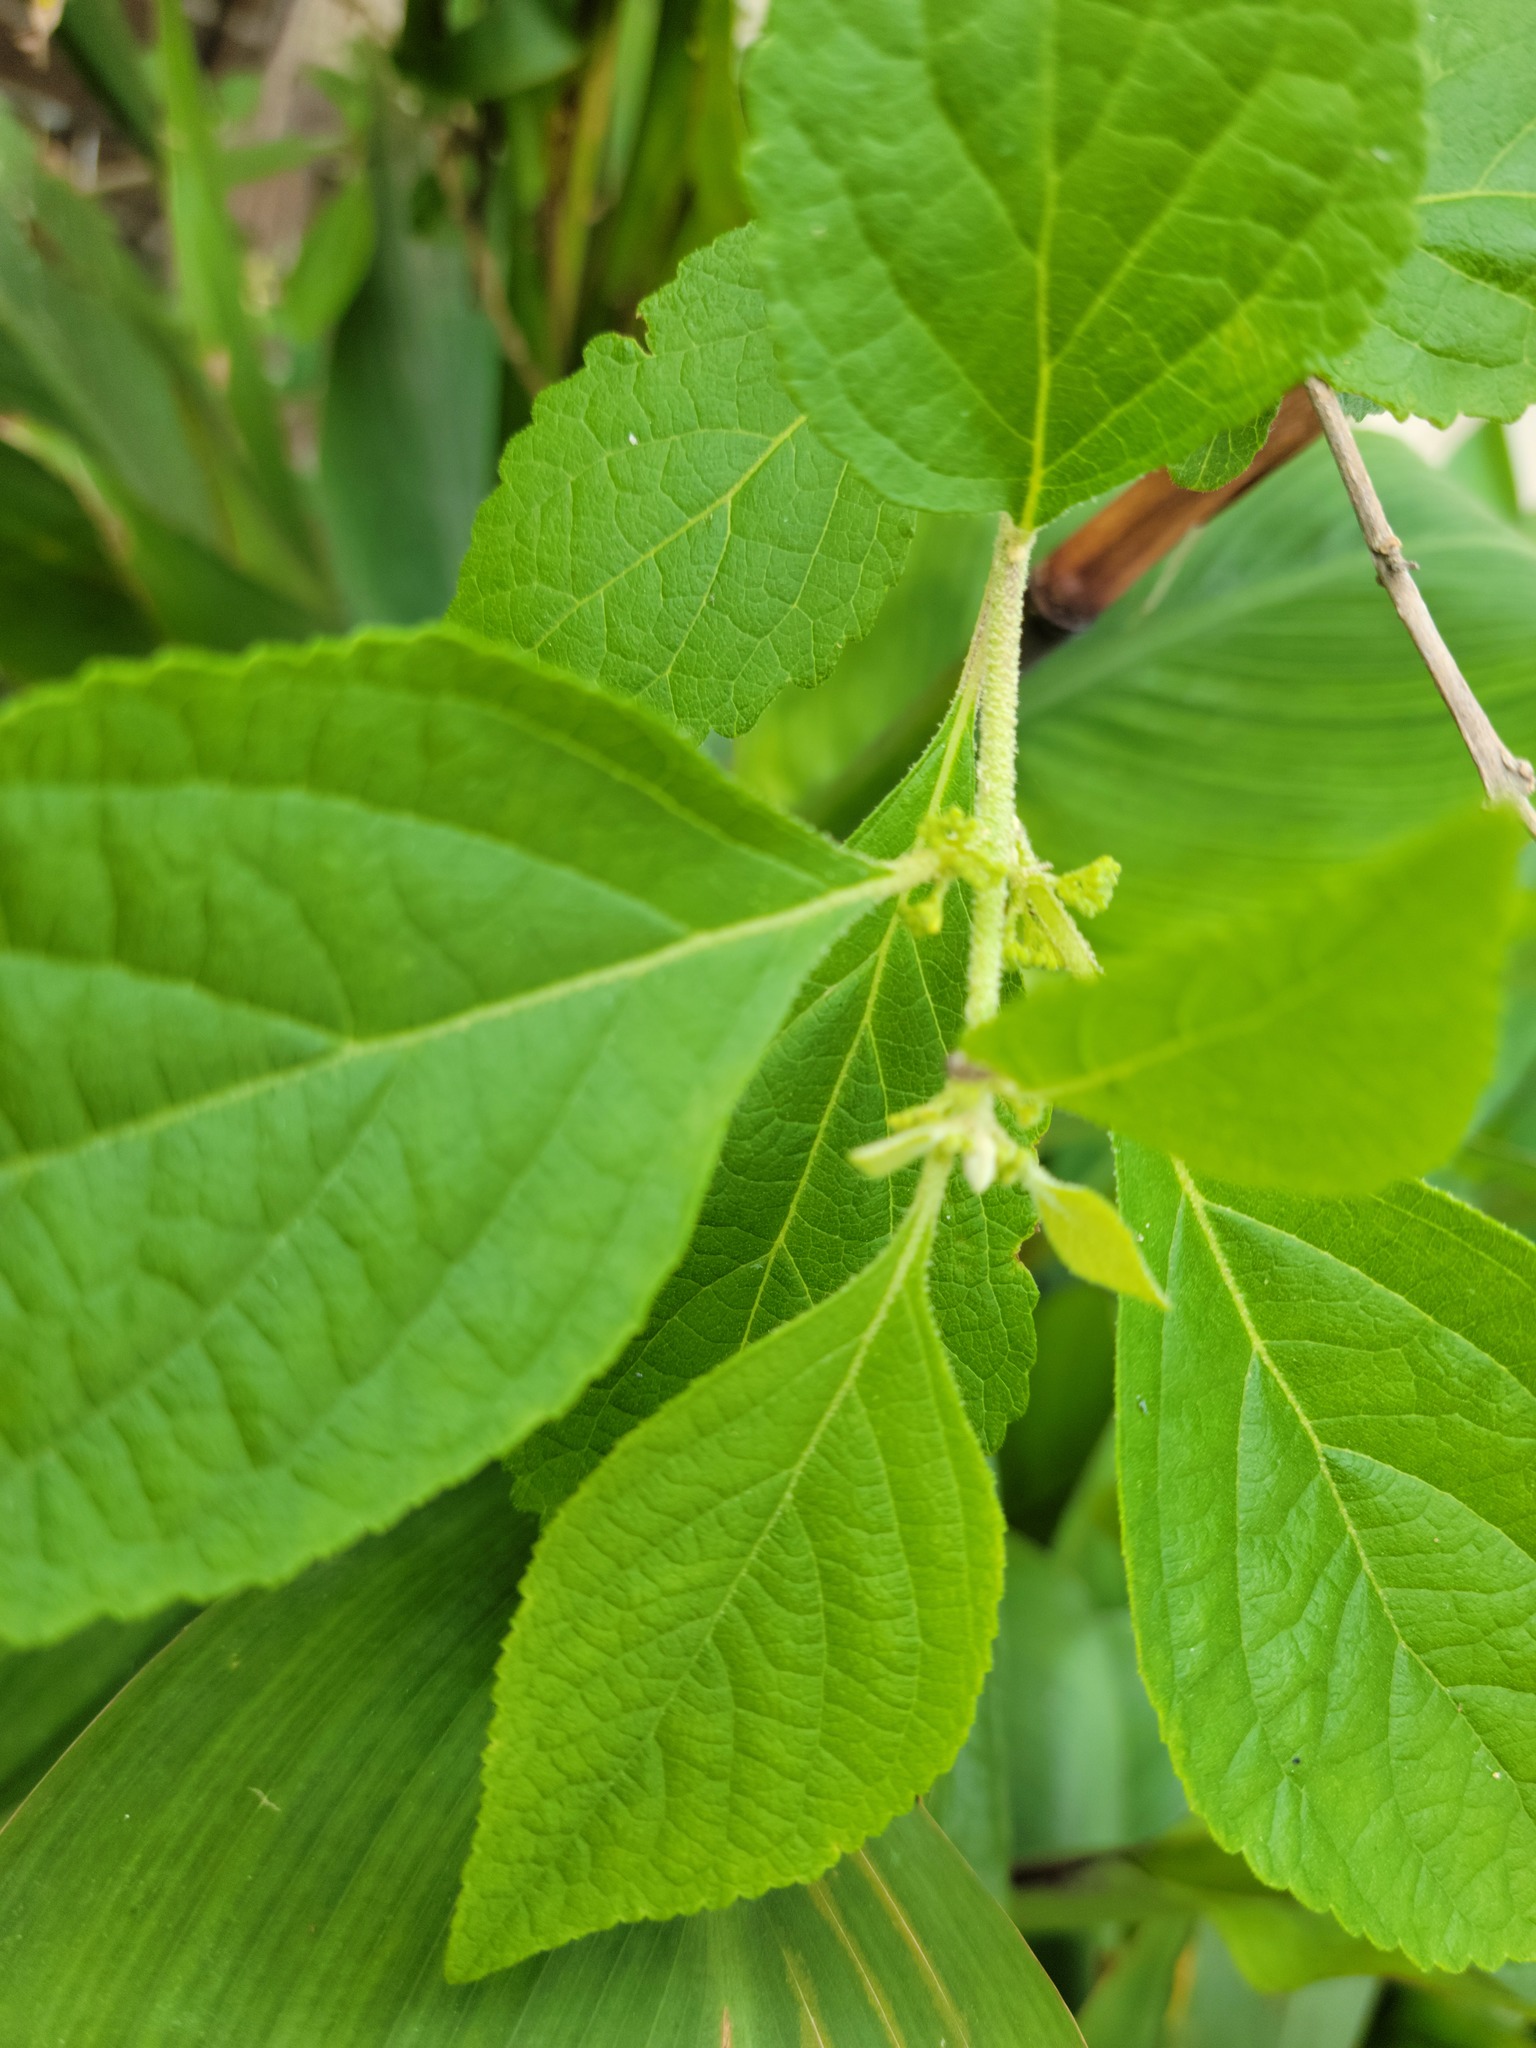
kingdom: Plantae
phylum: Tracheophyta
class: Magnoliopsida
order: Lamiales
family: Lamiaceae
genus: Callicarpa
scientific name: Callicarpa americana
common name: American beautyberry
